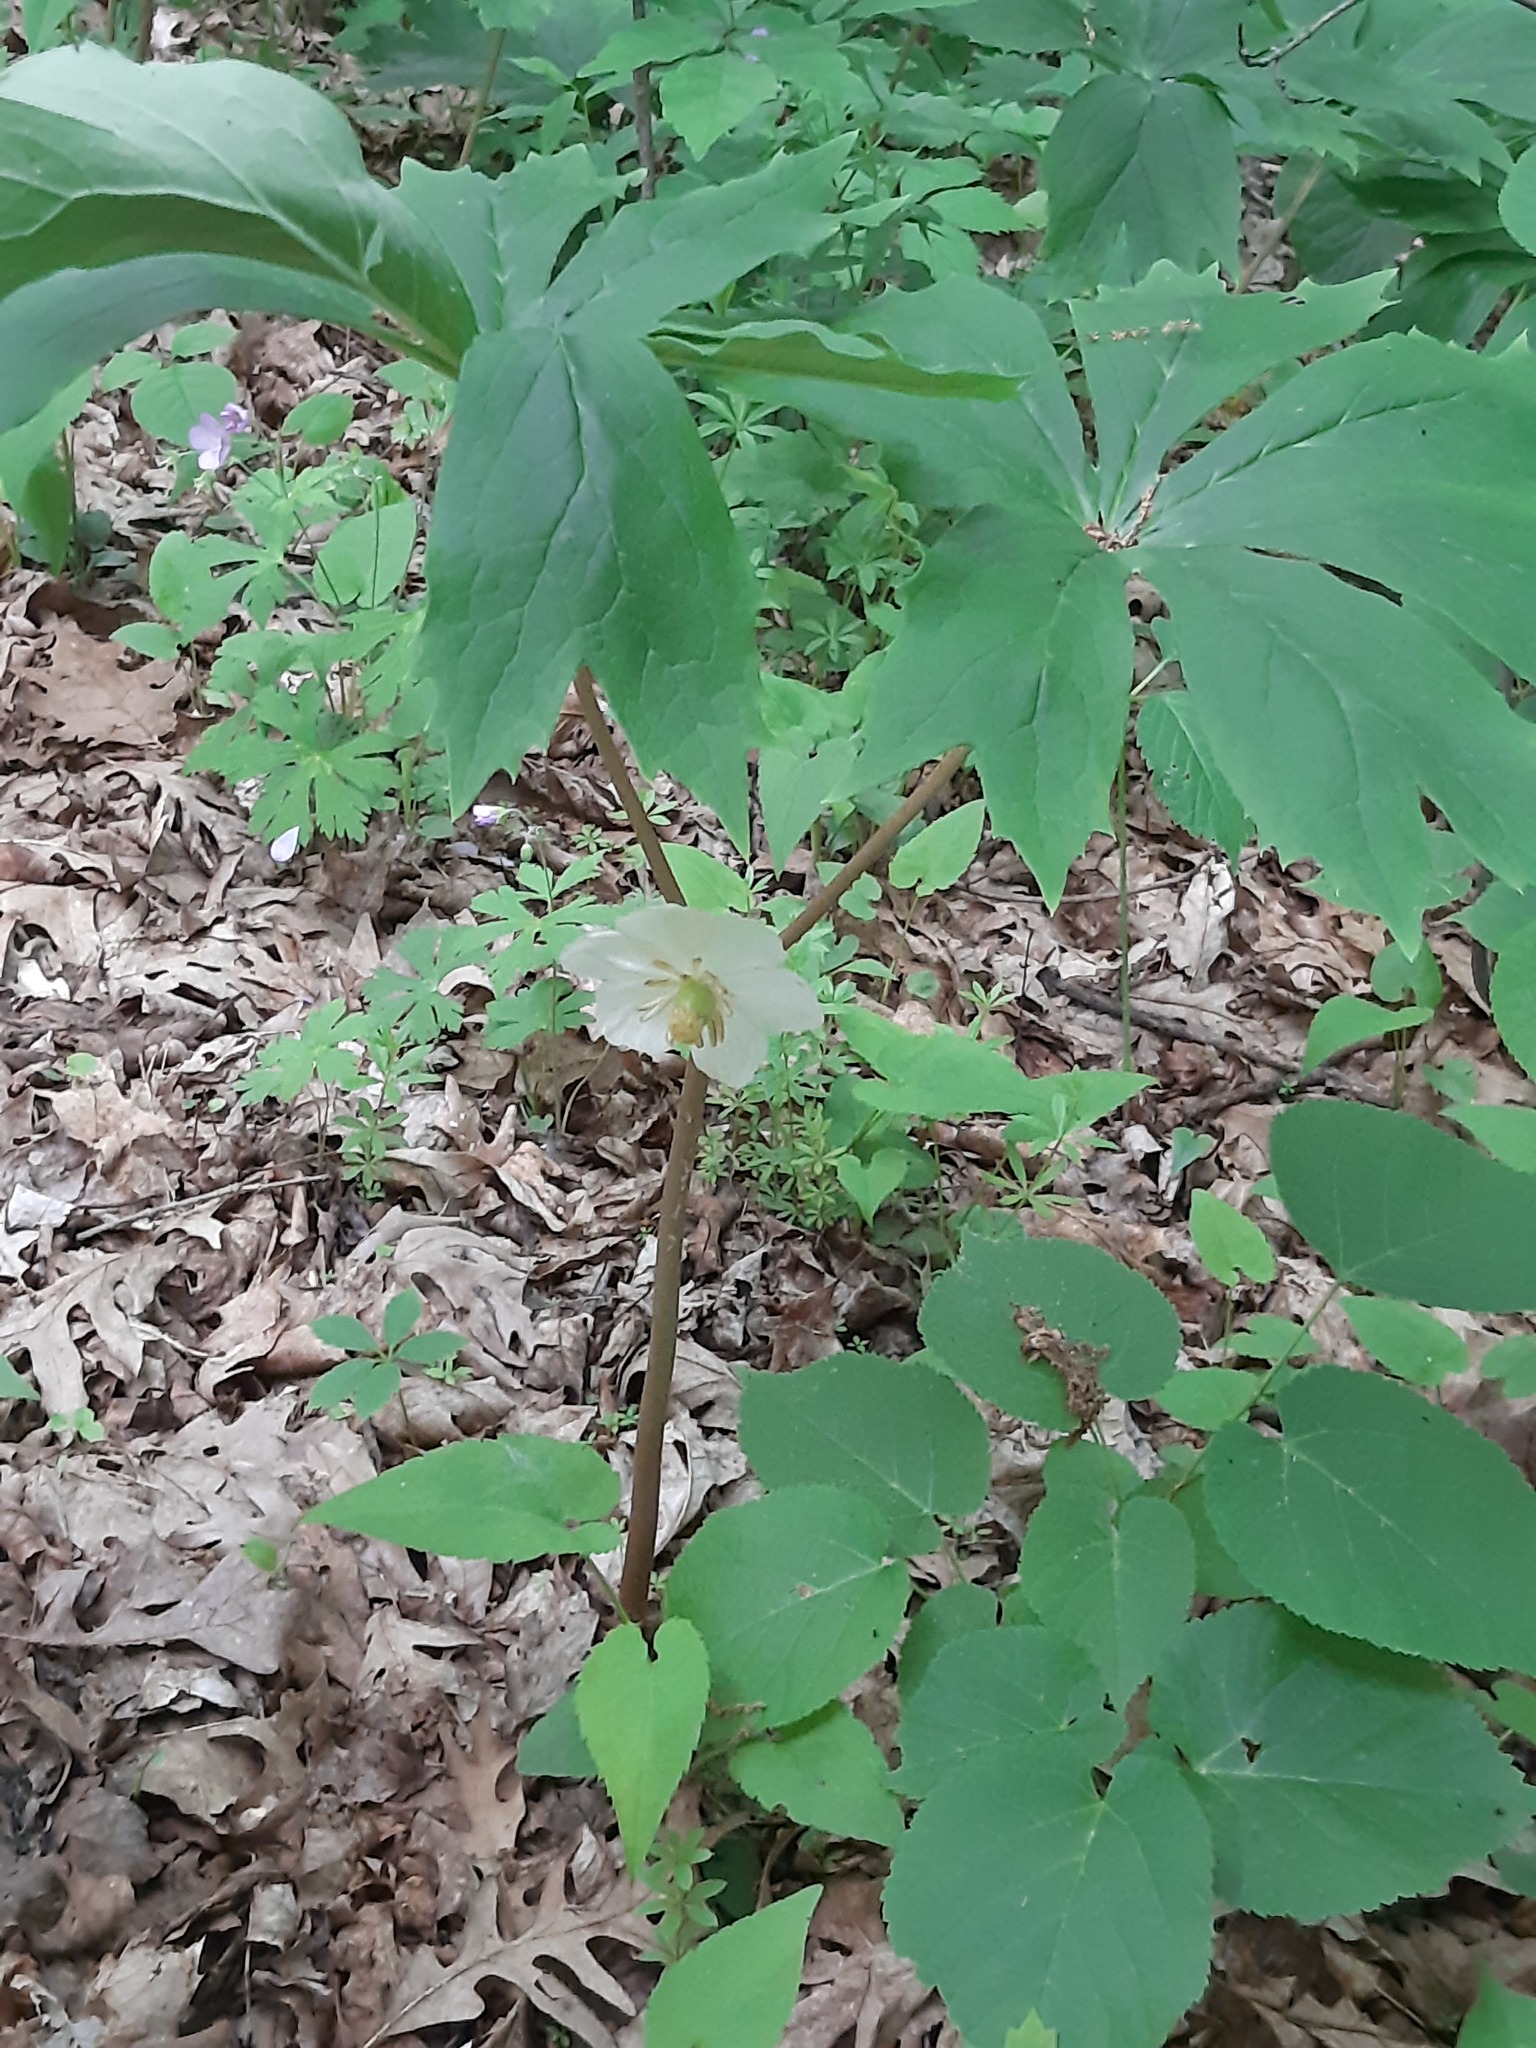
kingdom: Plantae
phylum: Tracheophyta
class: Magnoliopsida
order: Ranunculales
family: Berberidaceae
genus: Podophyllum
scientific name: Podophyllum peltatum
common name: Wild mandrake
